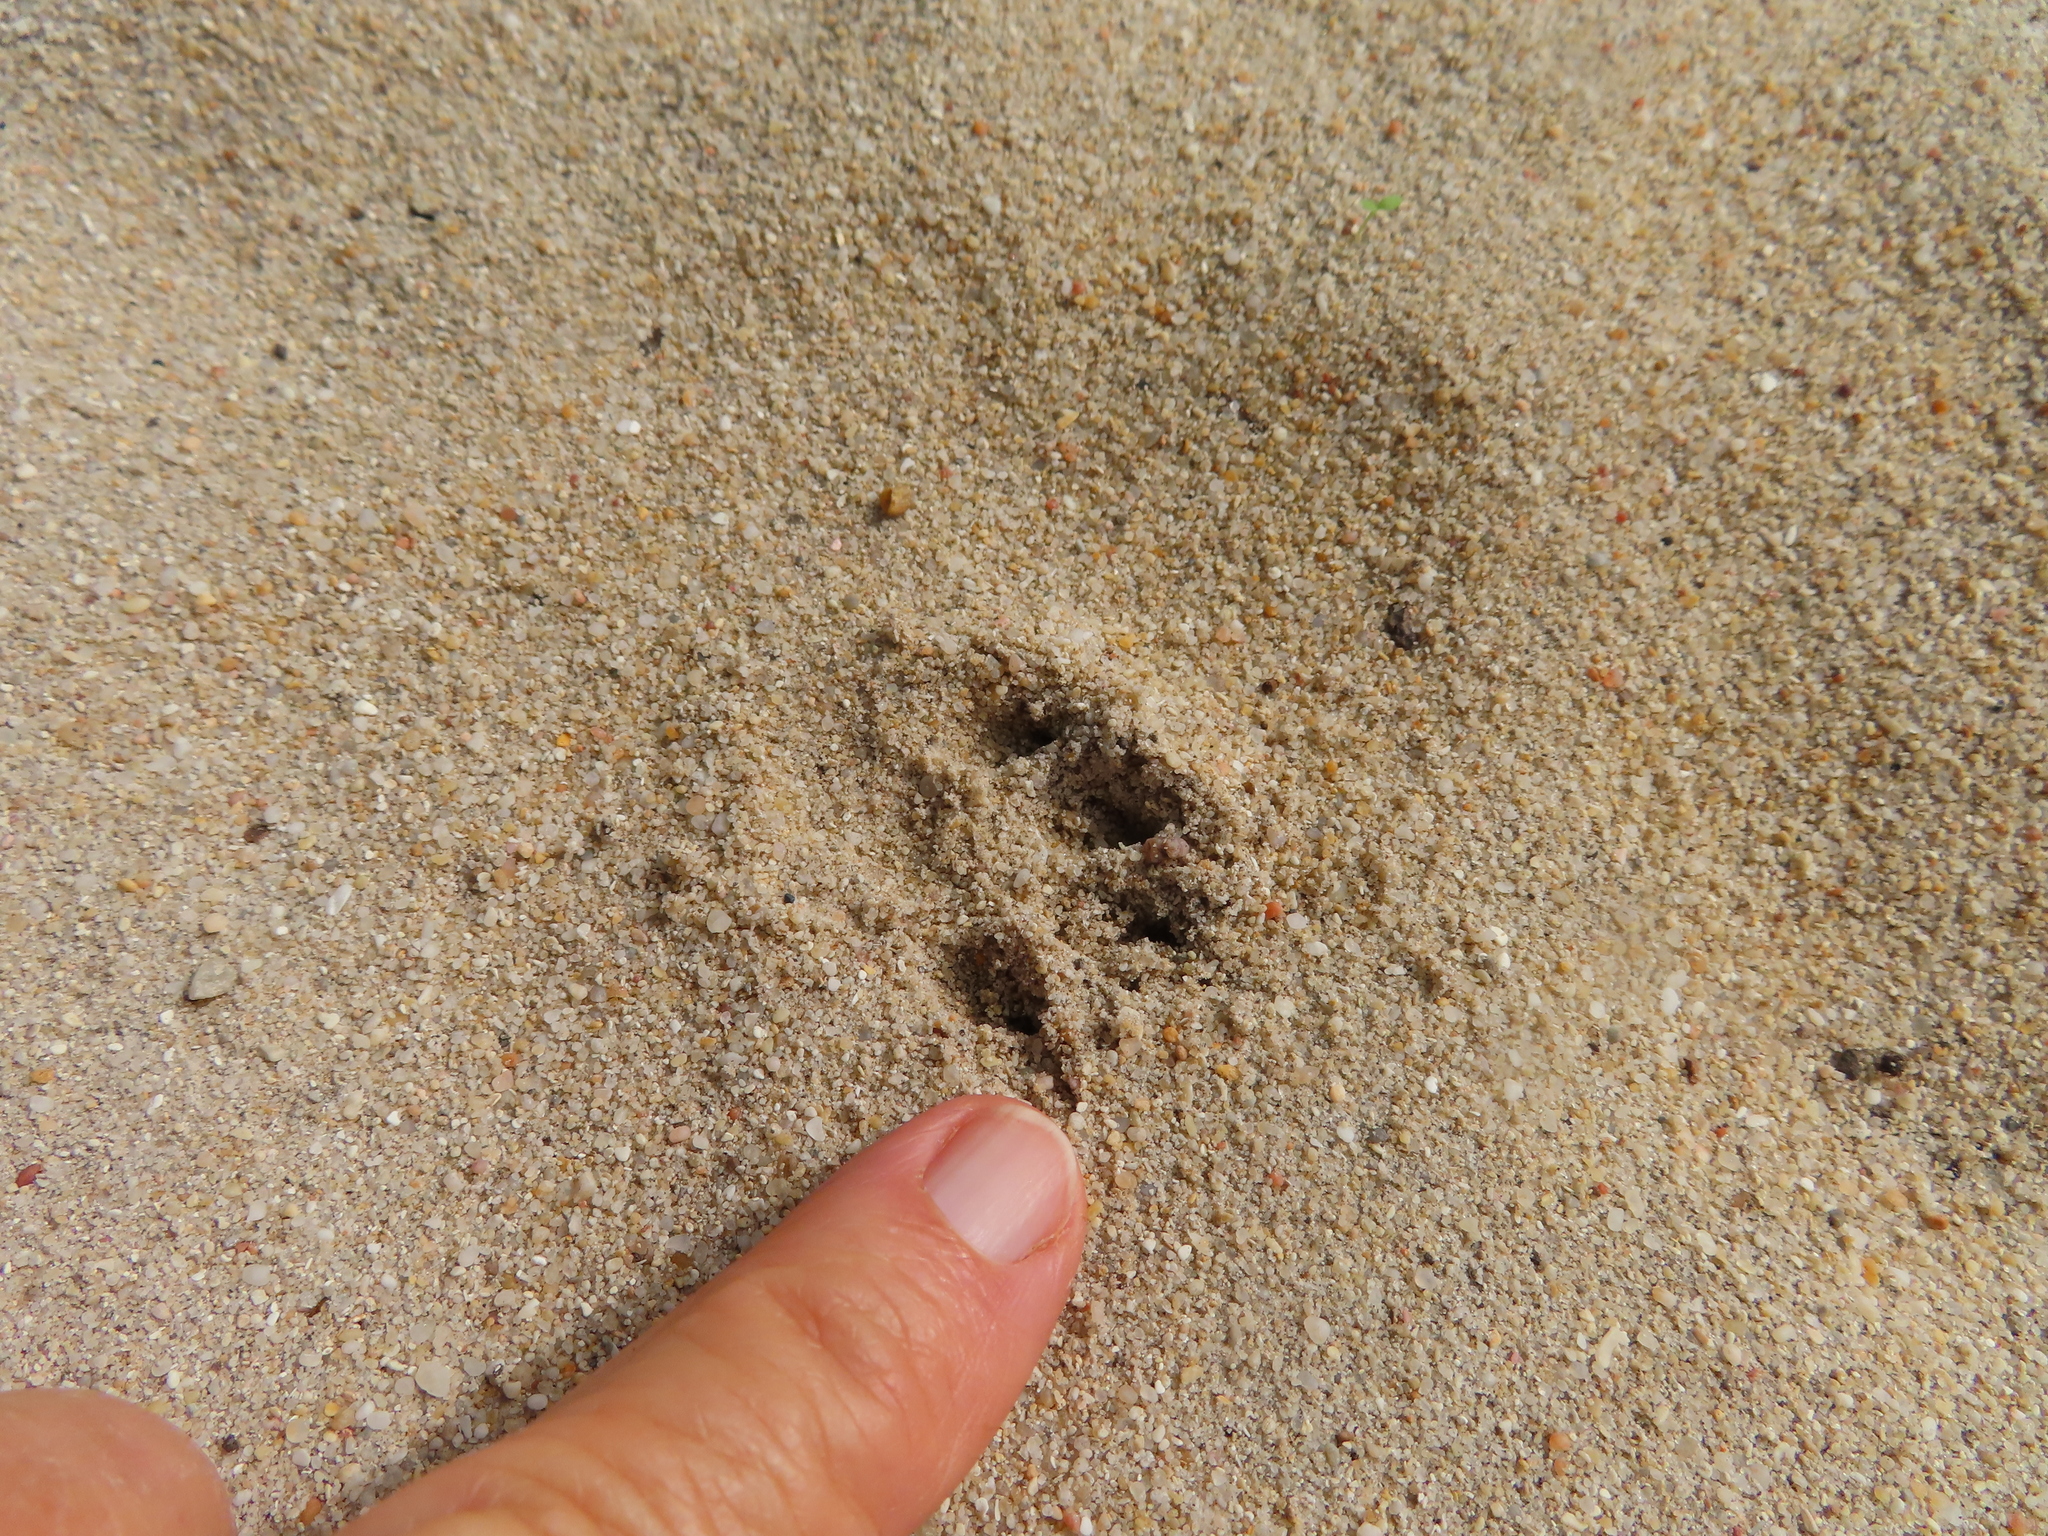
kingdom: Animalia
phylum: Chordata
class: Mammalia
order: Carnivora
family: Herpestidae
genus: Galerella
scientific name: Galerella pulverulenta
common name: Cape gray mongoose
